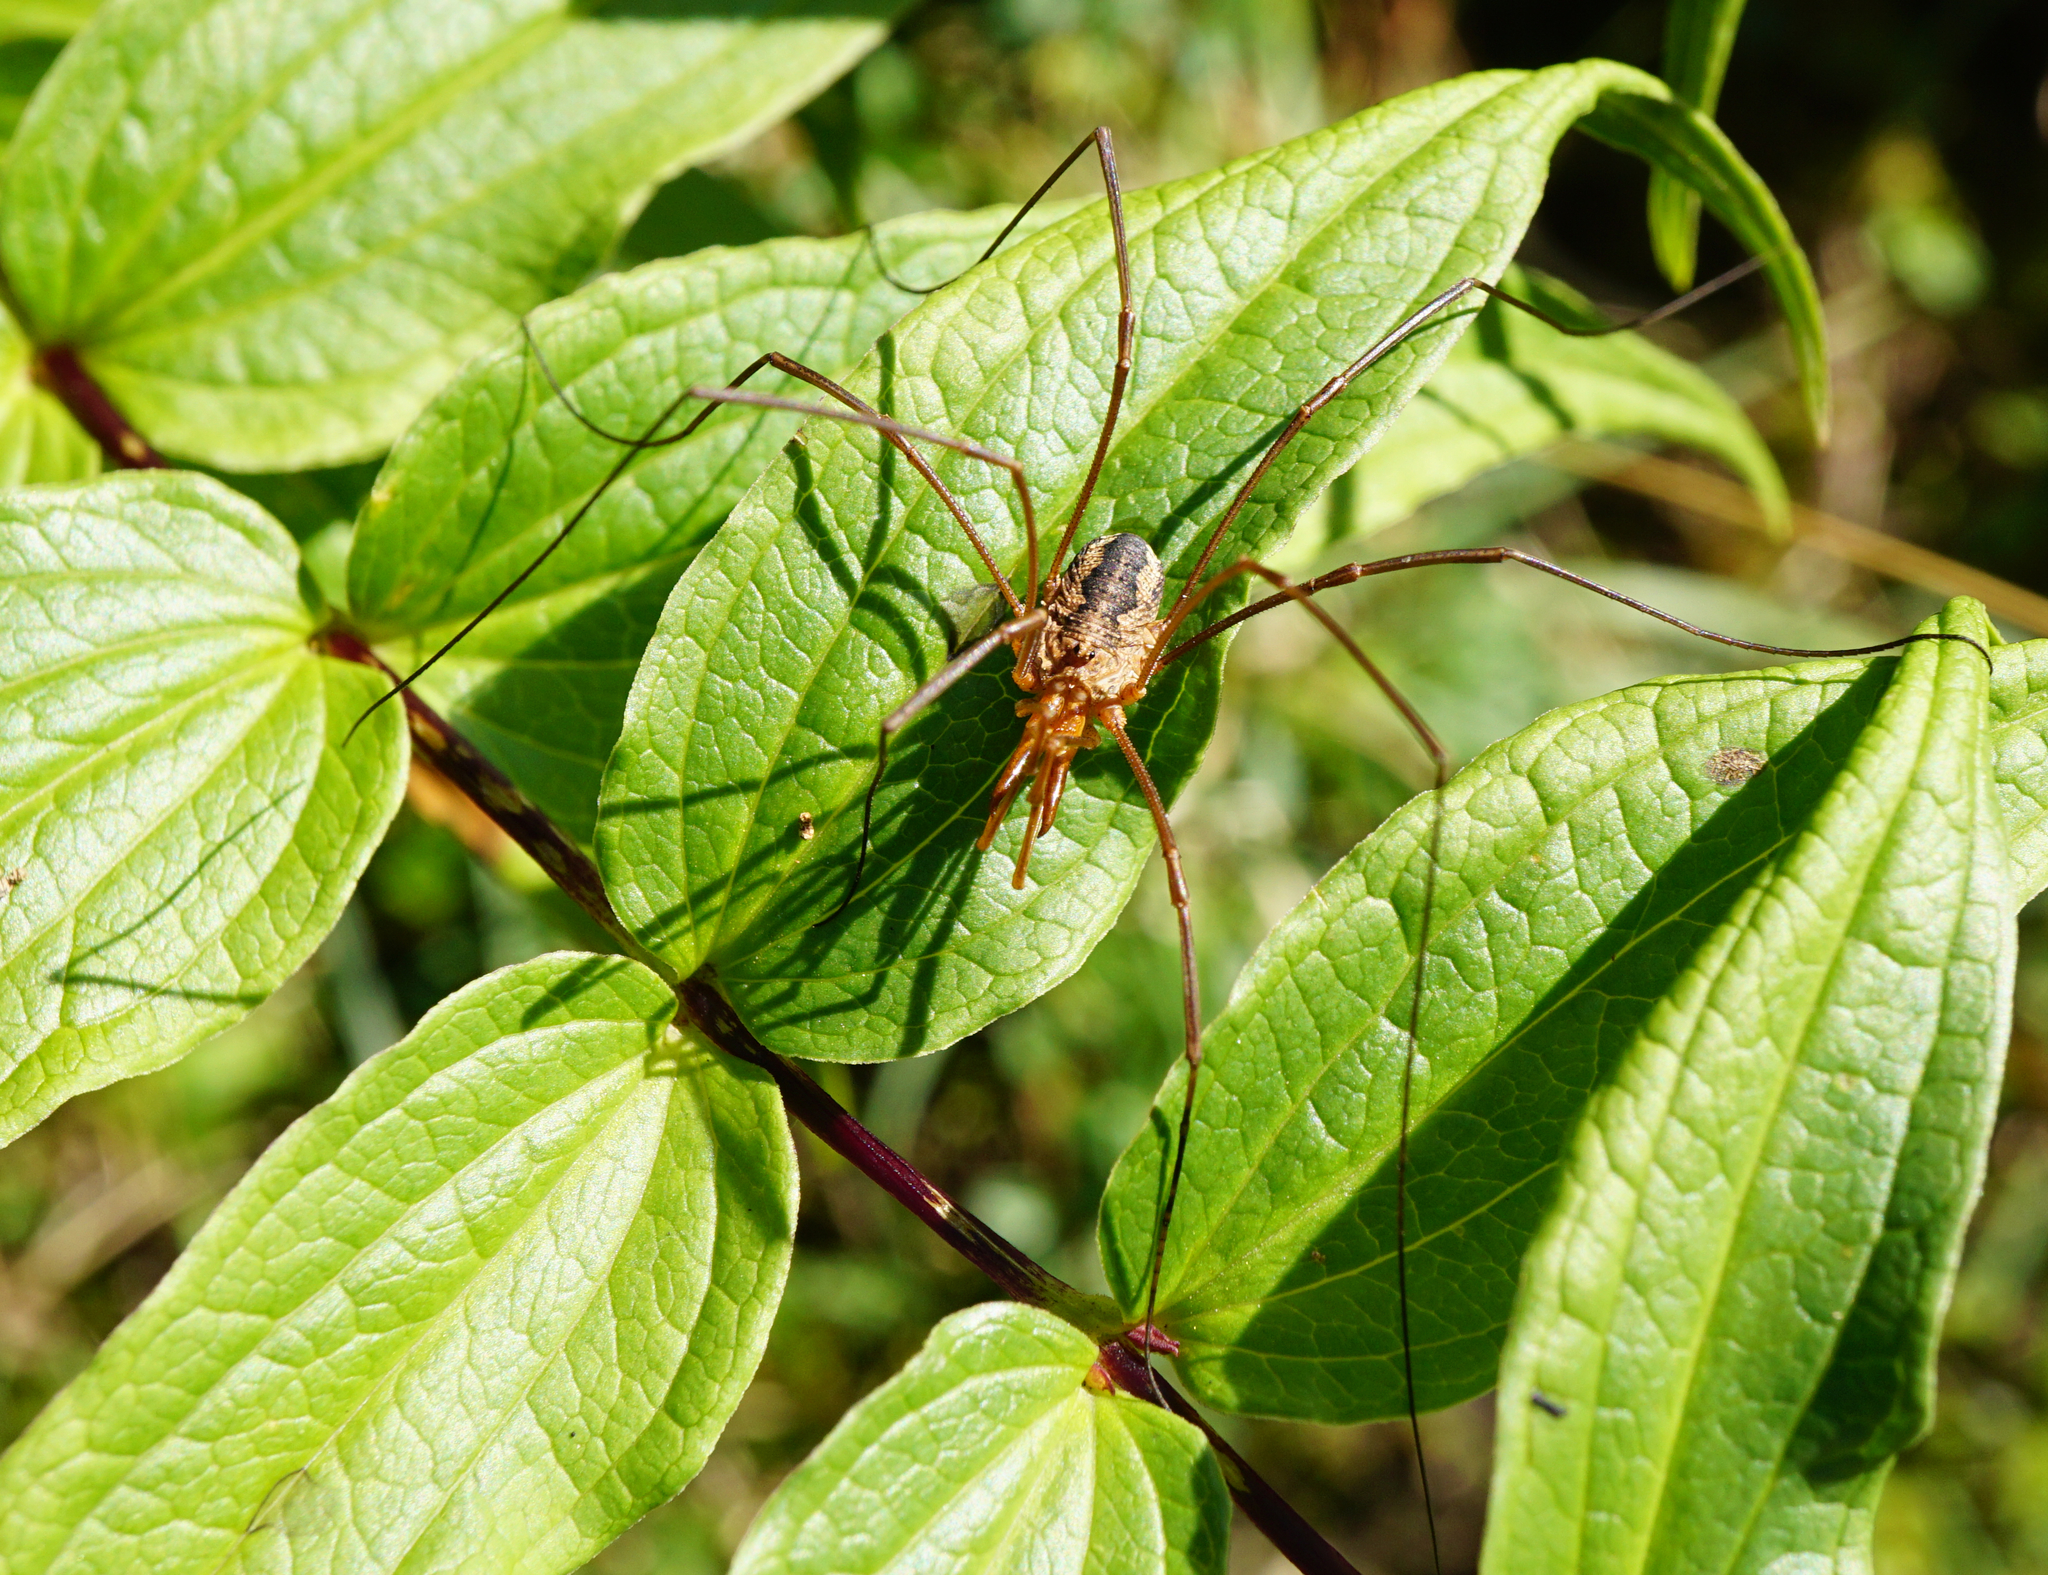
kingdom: Animalia
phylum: Arthropoda
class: Arachnida
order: Opiliones
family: Phalangiidae
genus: Phalangium
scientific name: Phalangium opilio
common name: Daddy longleg
